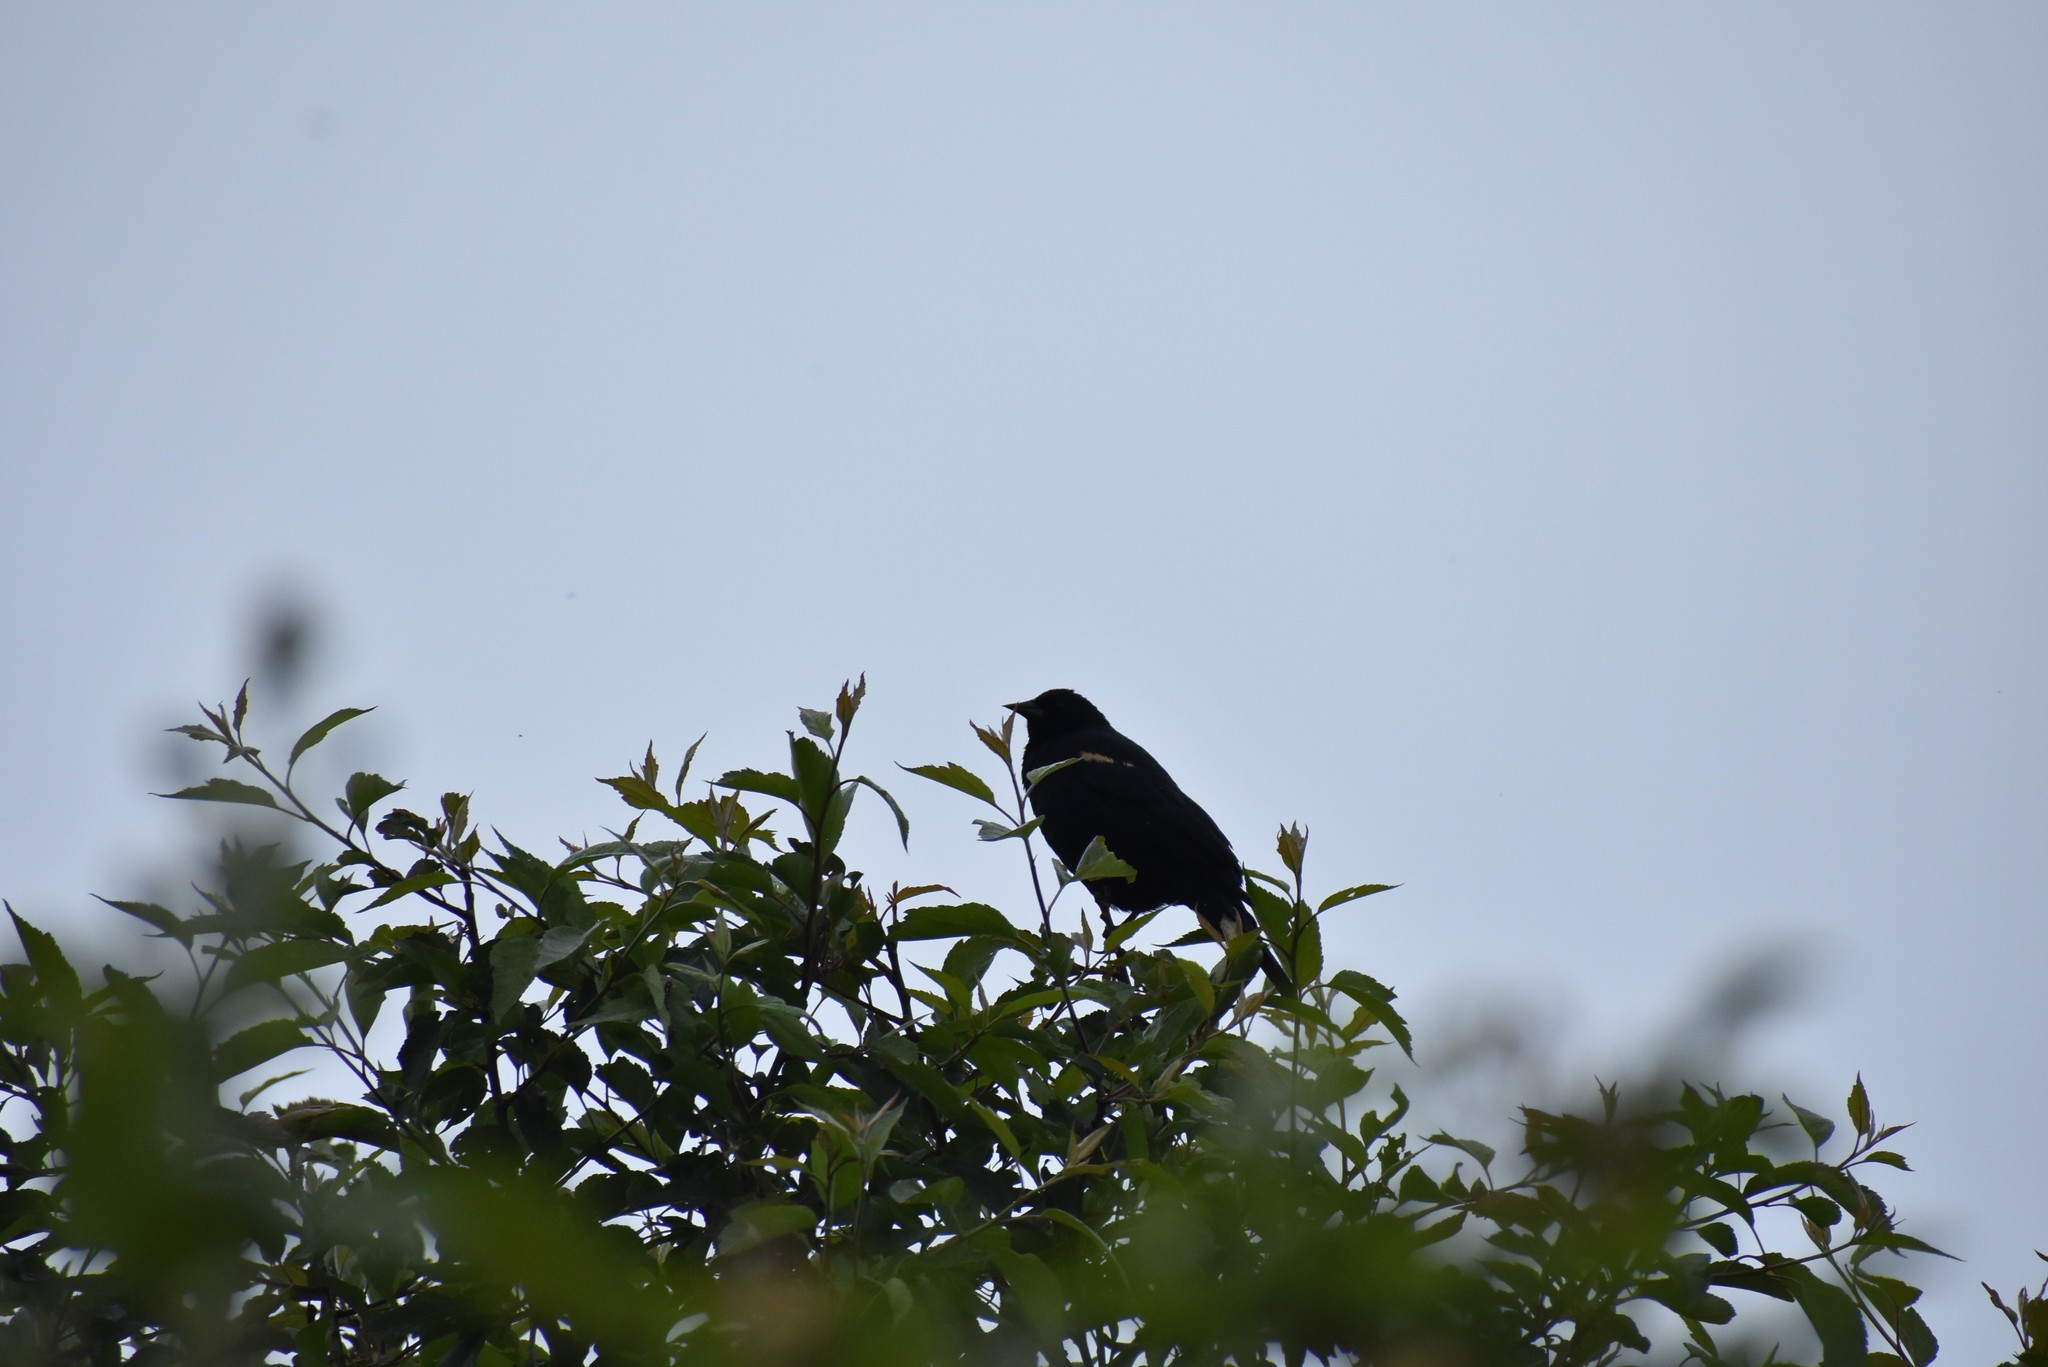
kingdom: Animalia
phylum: Chordata
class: Aves
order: Passeriformes
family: Icteridae
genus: Agelaius
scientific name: Agelaius phoeniceus
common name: Red-winged blackbird
